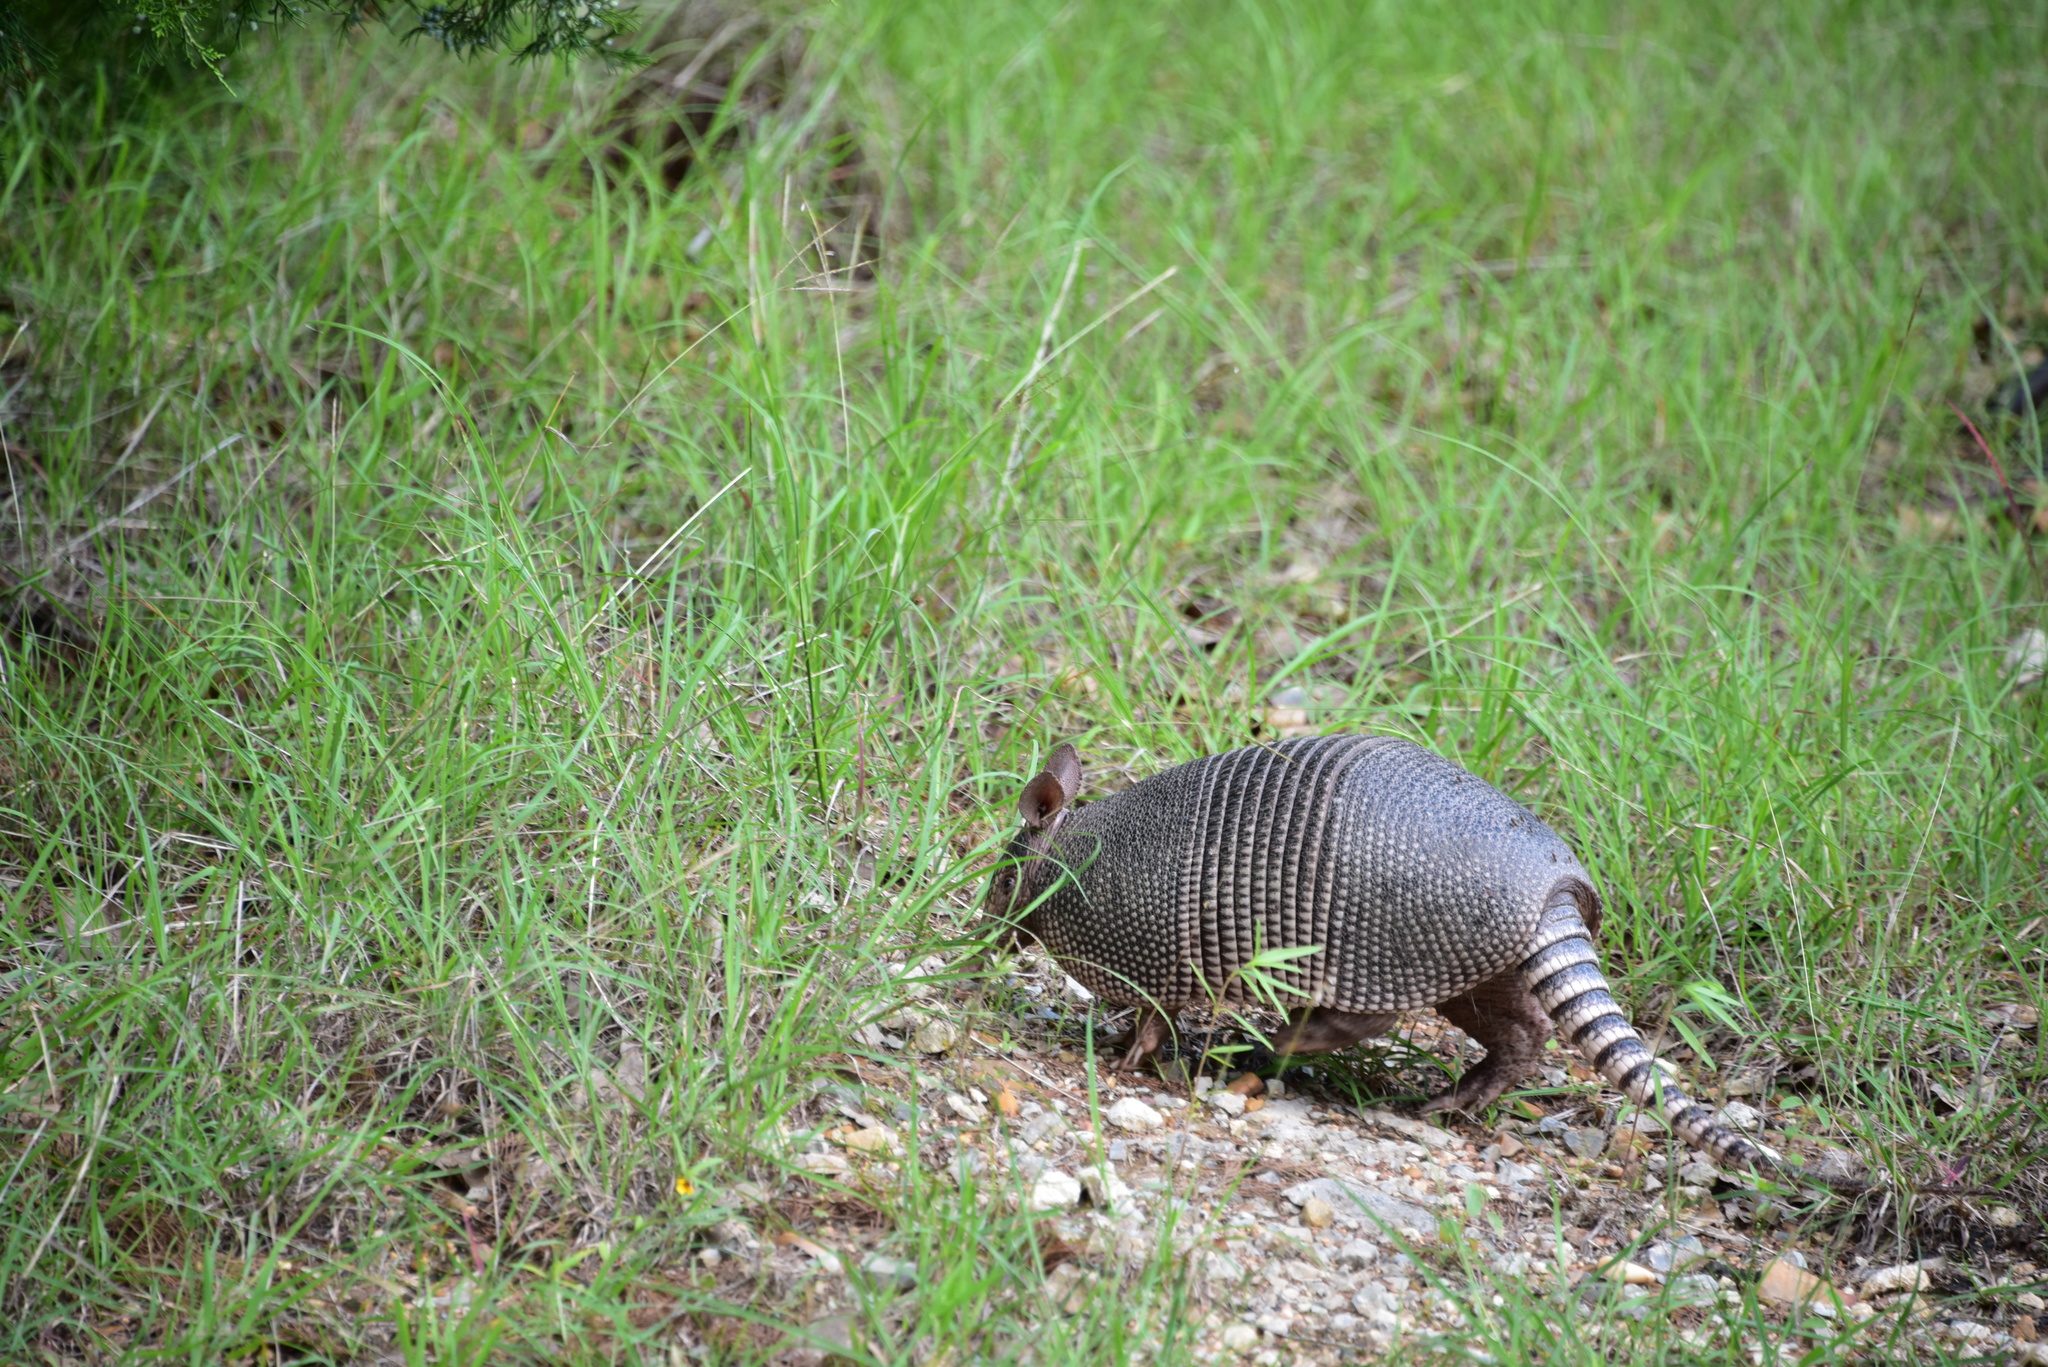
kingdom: Animalia
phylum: Chordata
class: Mammalia
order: Cingulata
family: Dasypodidae
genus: Dasypus
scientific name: Dasypus novemcinctus
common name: Nine-banded armadillo
